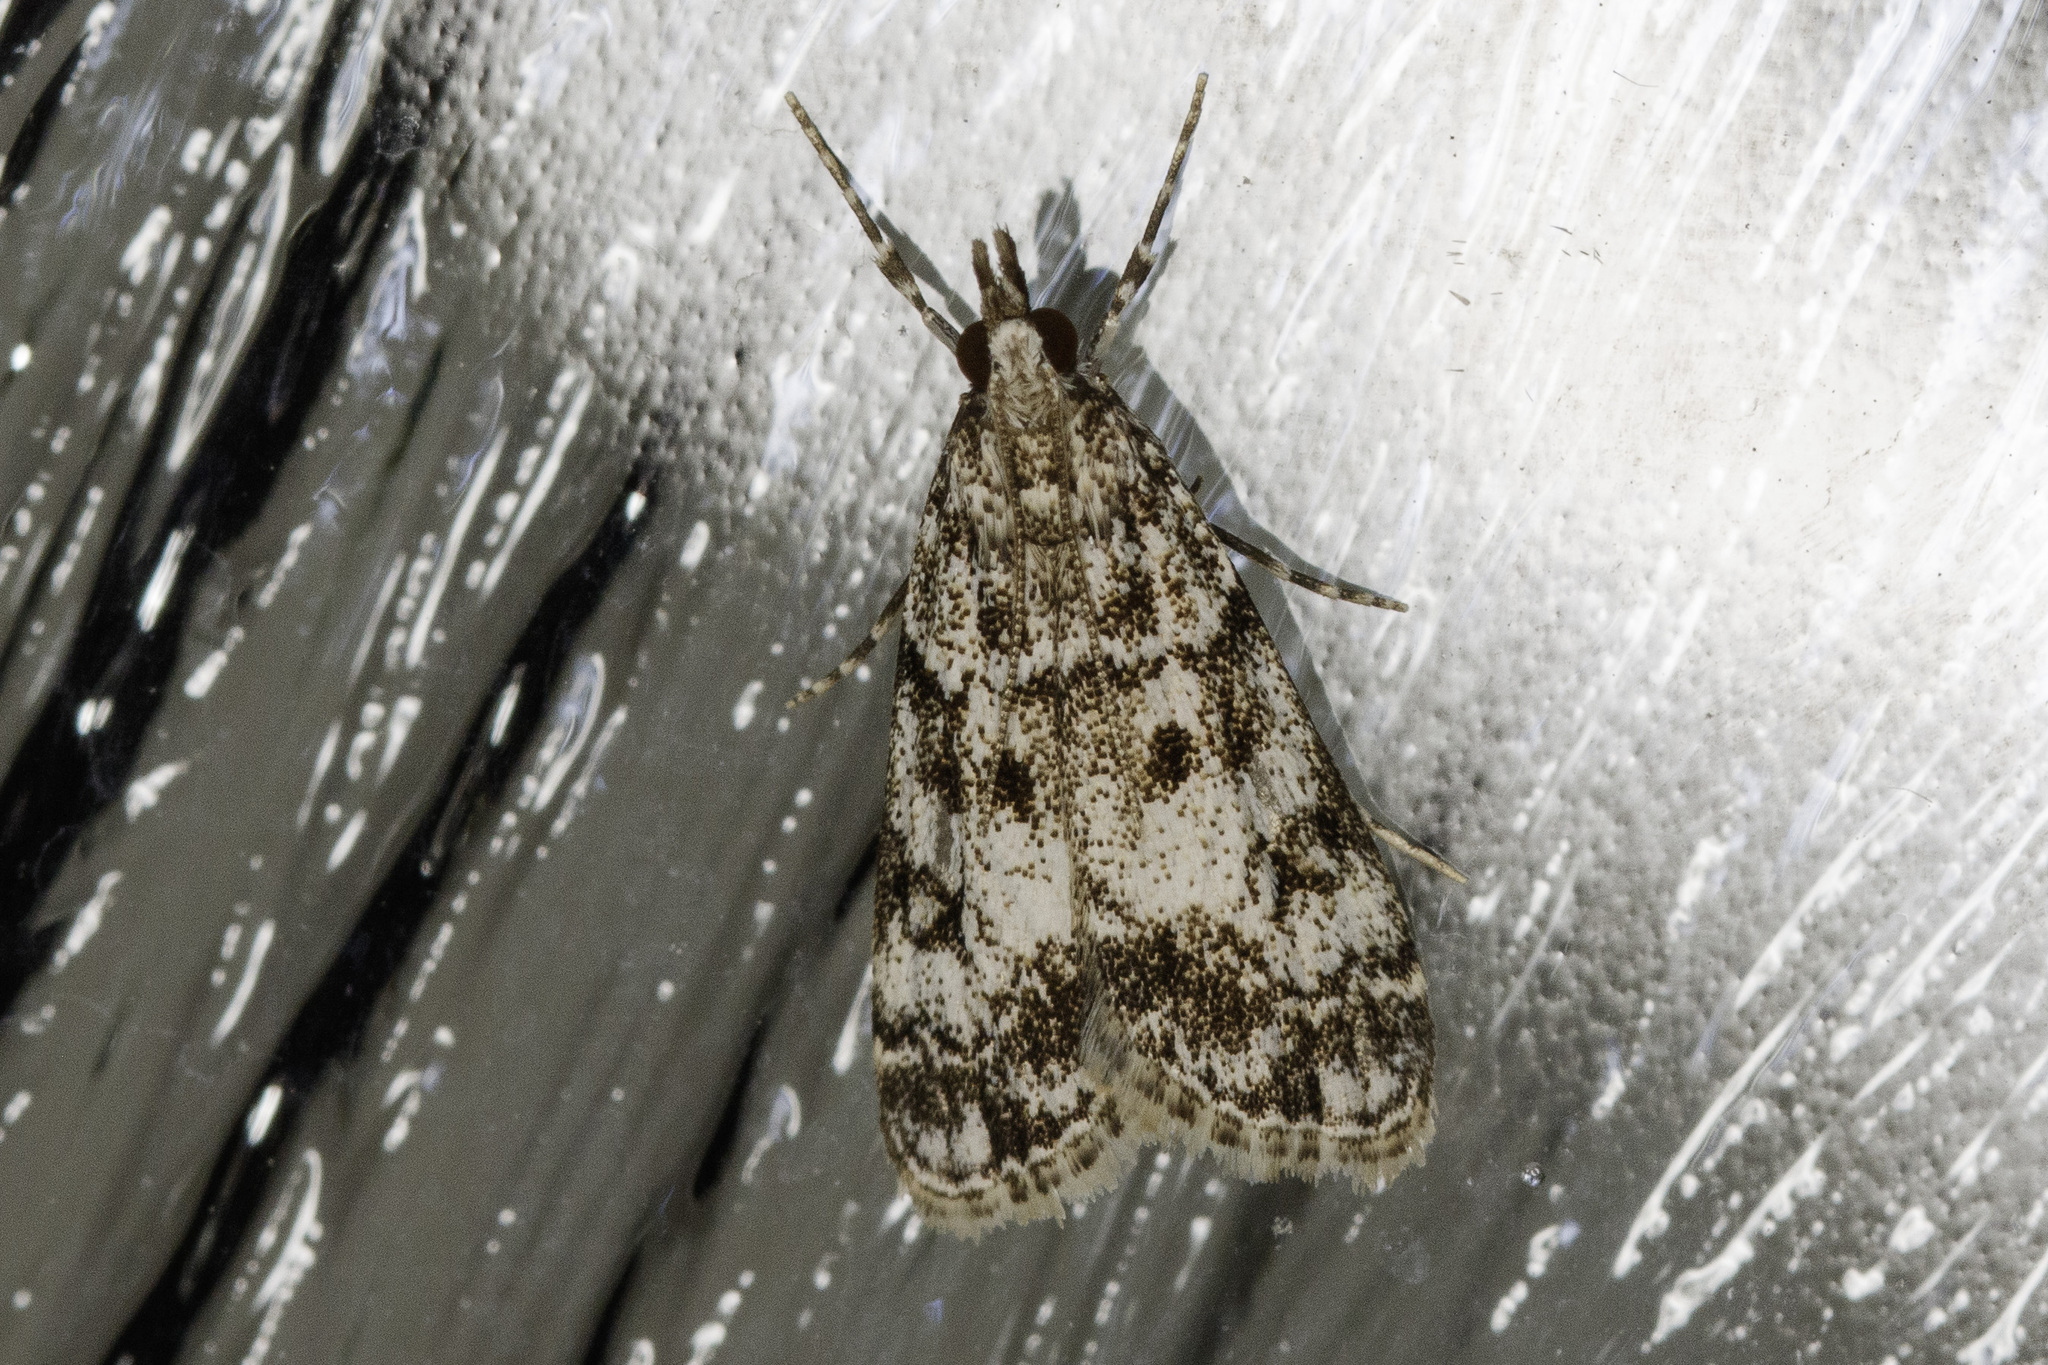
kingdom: Animalia
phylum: Arthropoda
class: Insecta
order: Lepidoptera
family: Crambidae
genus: Eudonia
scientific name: Eudonia lacustrata
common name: Little grey
